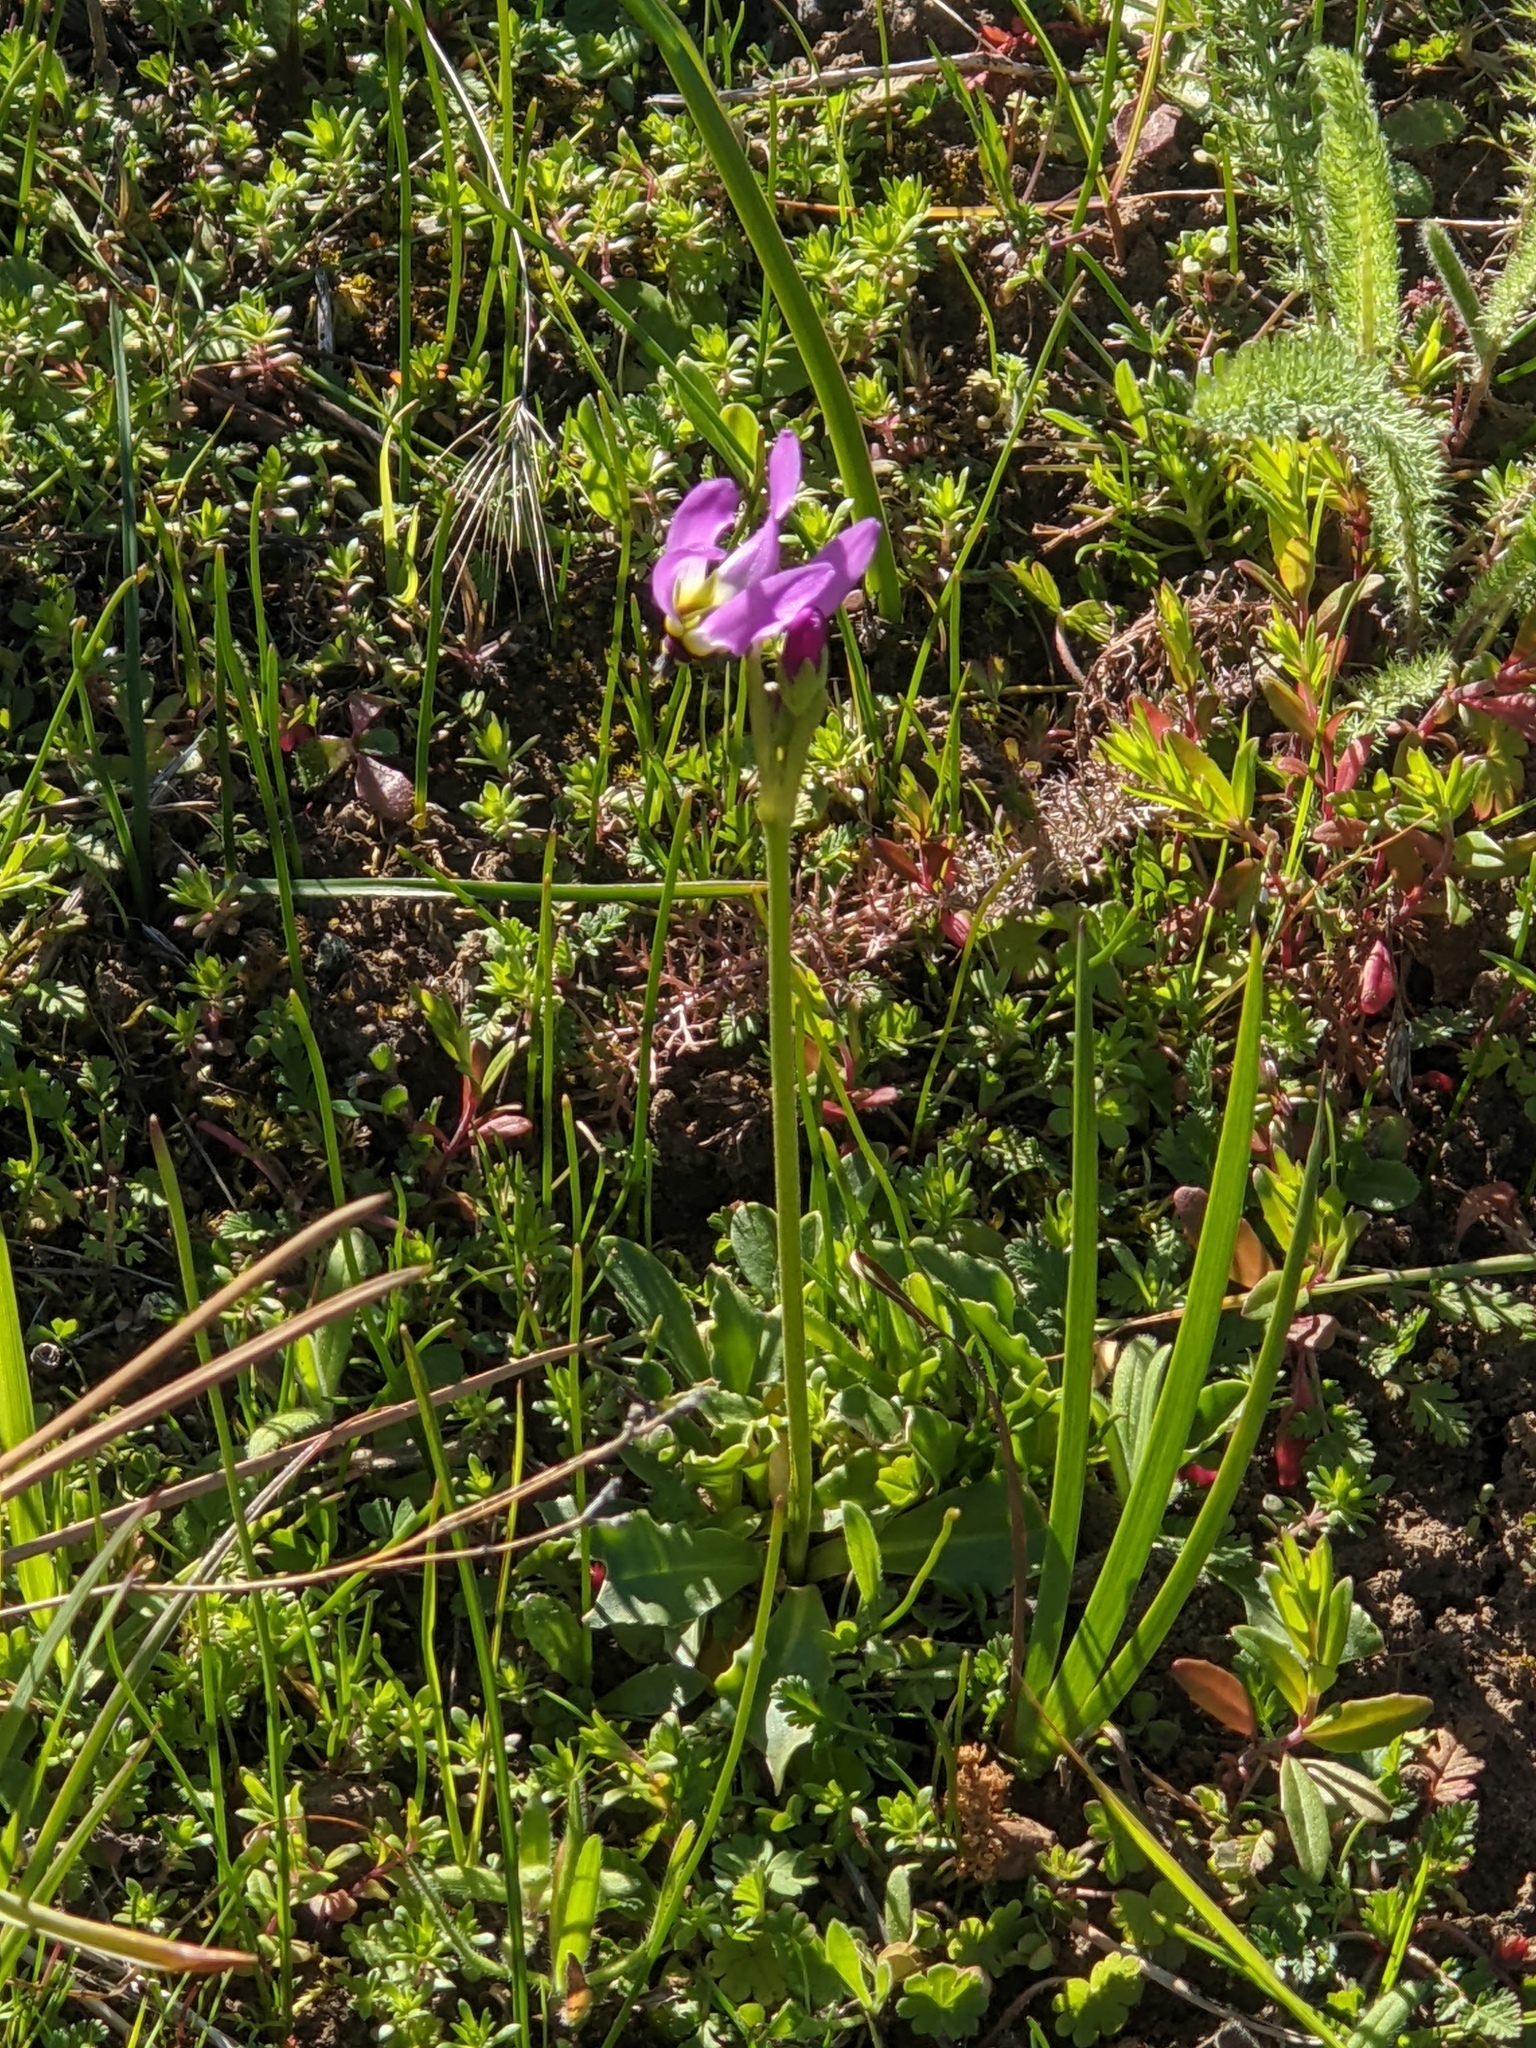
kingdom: Plantae
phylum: Tracheophyta
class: Magnoliopsida
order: Ericales
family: Primulaceae
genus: Dodecatheon
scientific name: Dodecatheon clevelandii
